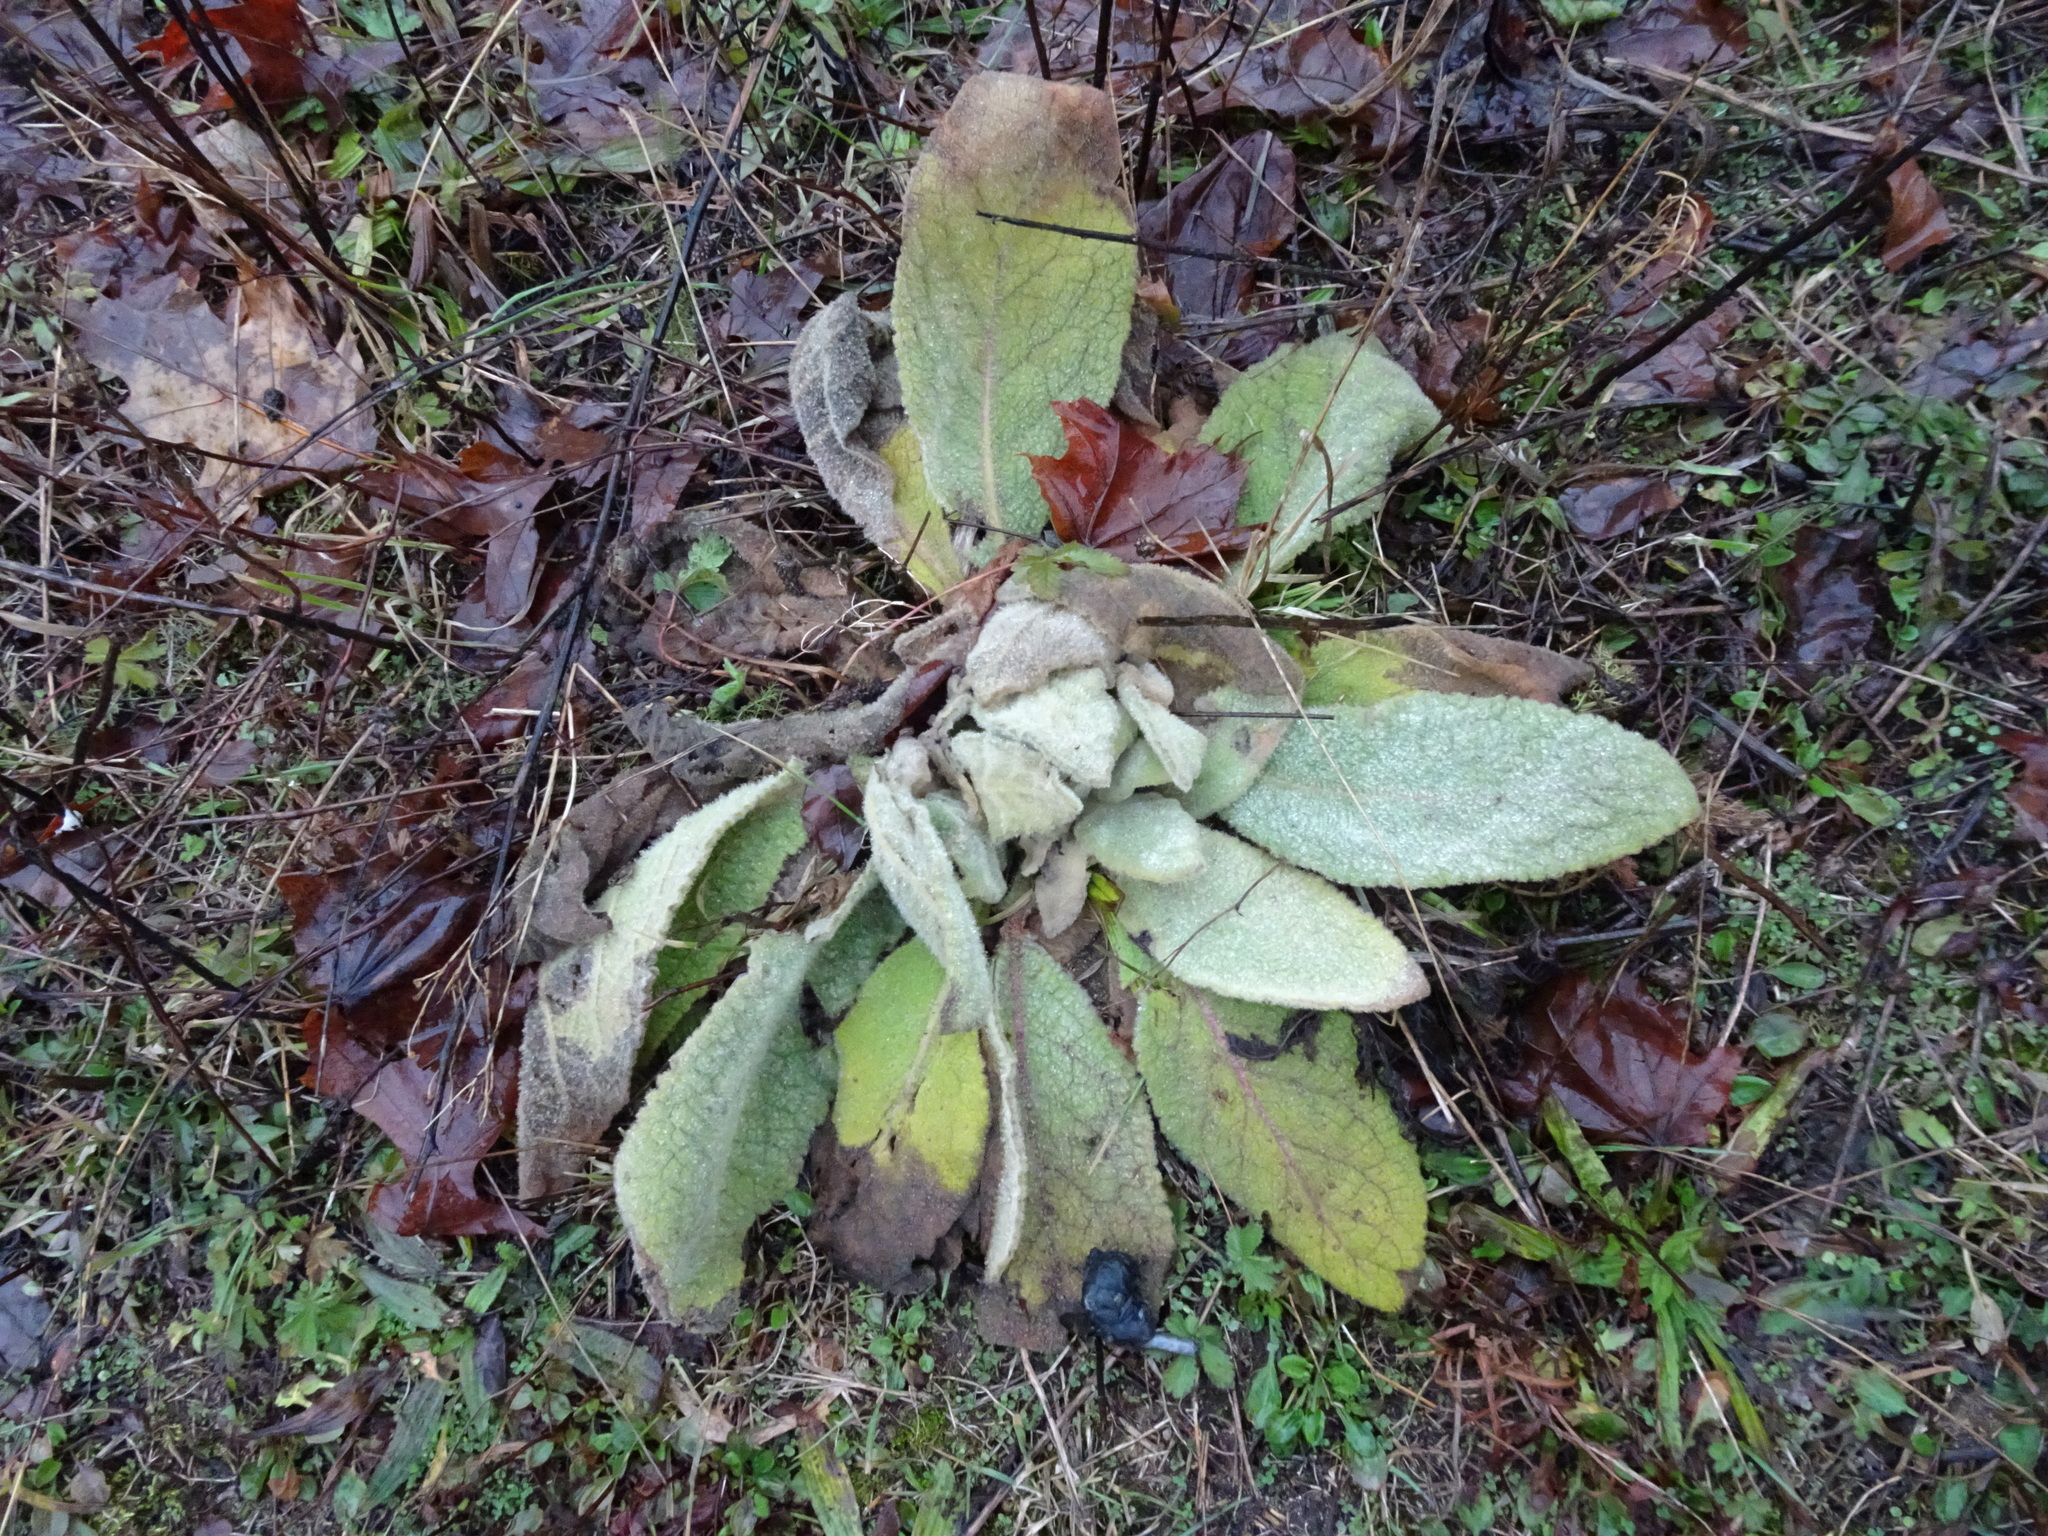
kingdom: Plantae
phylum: Tracheophyta
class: Magnoliopsida
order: Lamiales
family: Scrophulariaceae
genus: Verbascum
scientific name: Verbascum thapsus
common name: Common mullein
